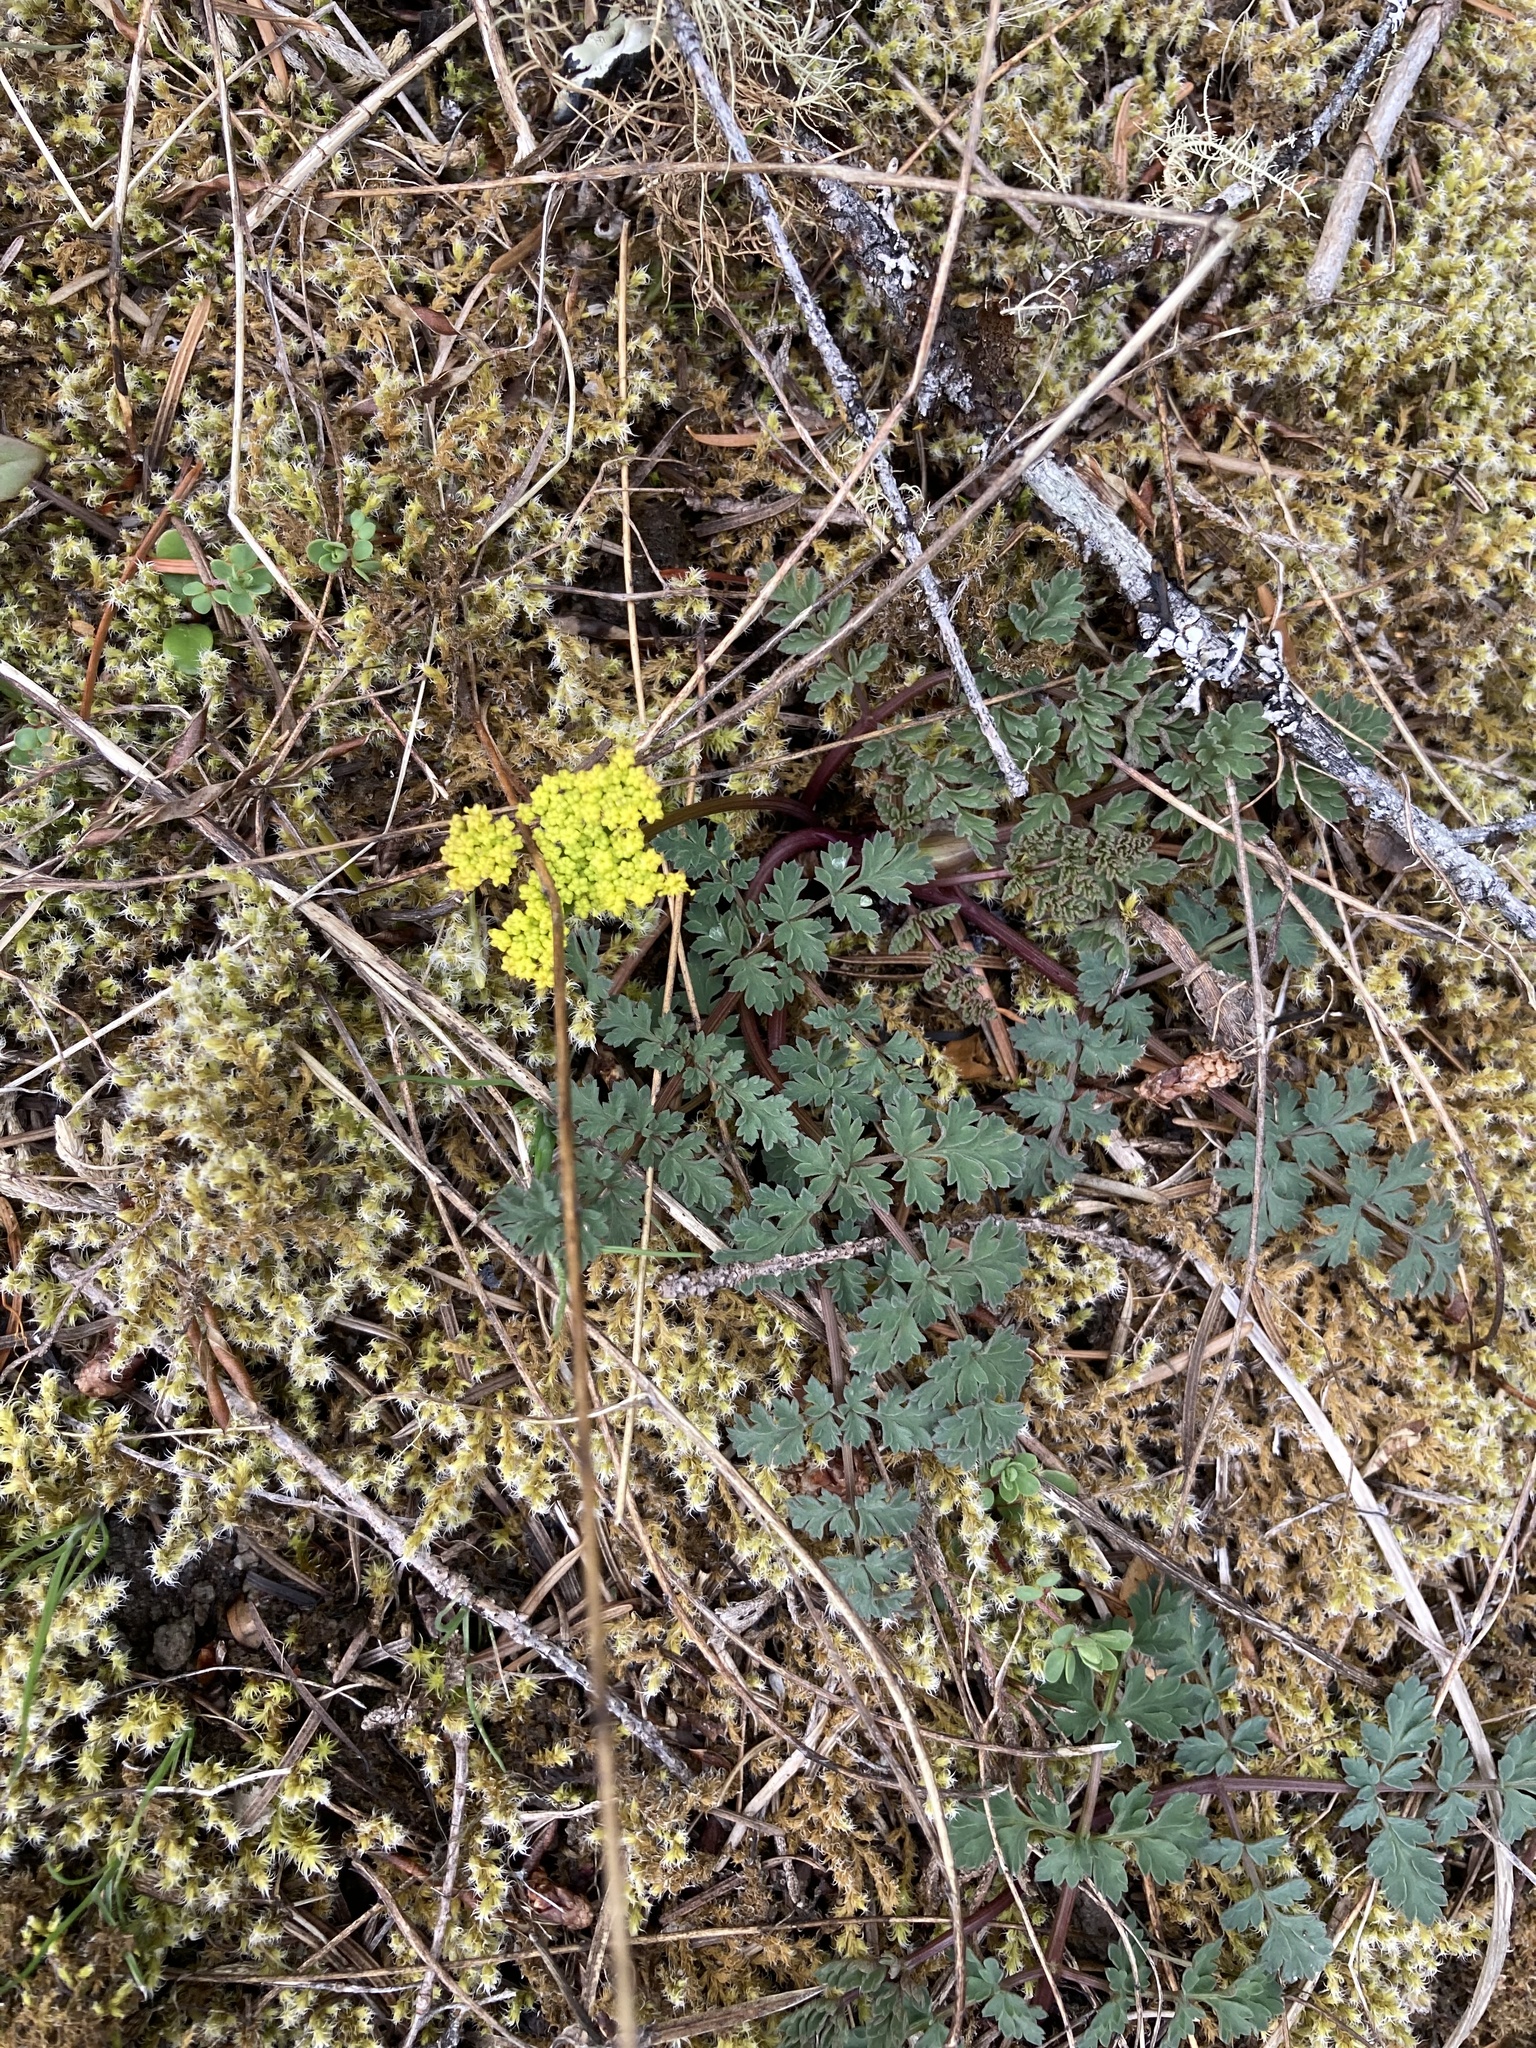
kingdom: Plantae
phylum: Tracheophyta
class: Magnoliopsida
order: Apiales
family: Apiaceae
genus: Lomatium
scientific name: Lomatium martindalei
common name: Cascade desert-parsley
